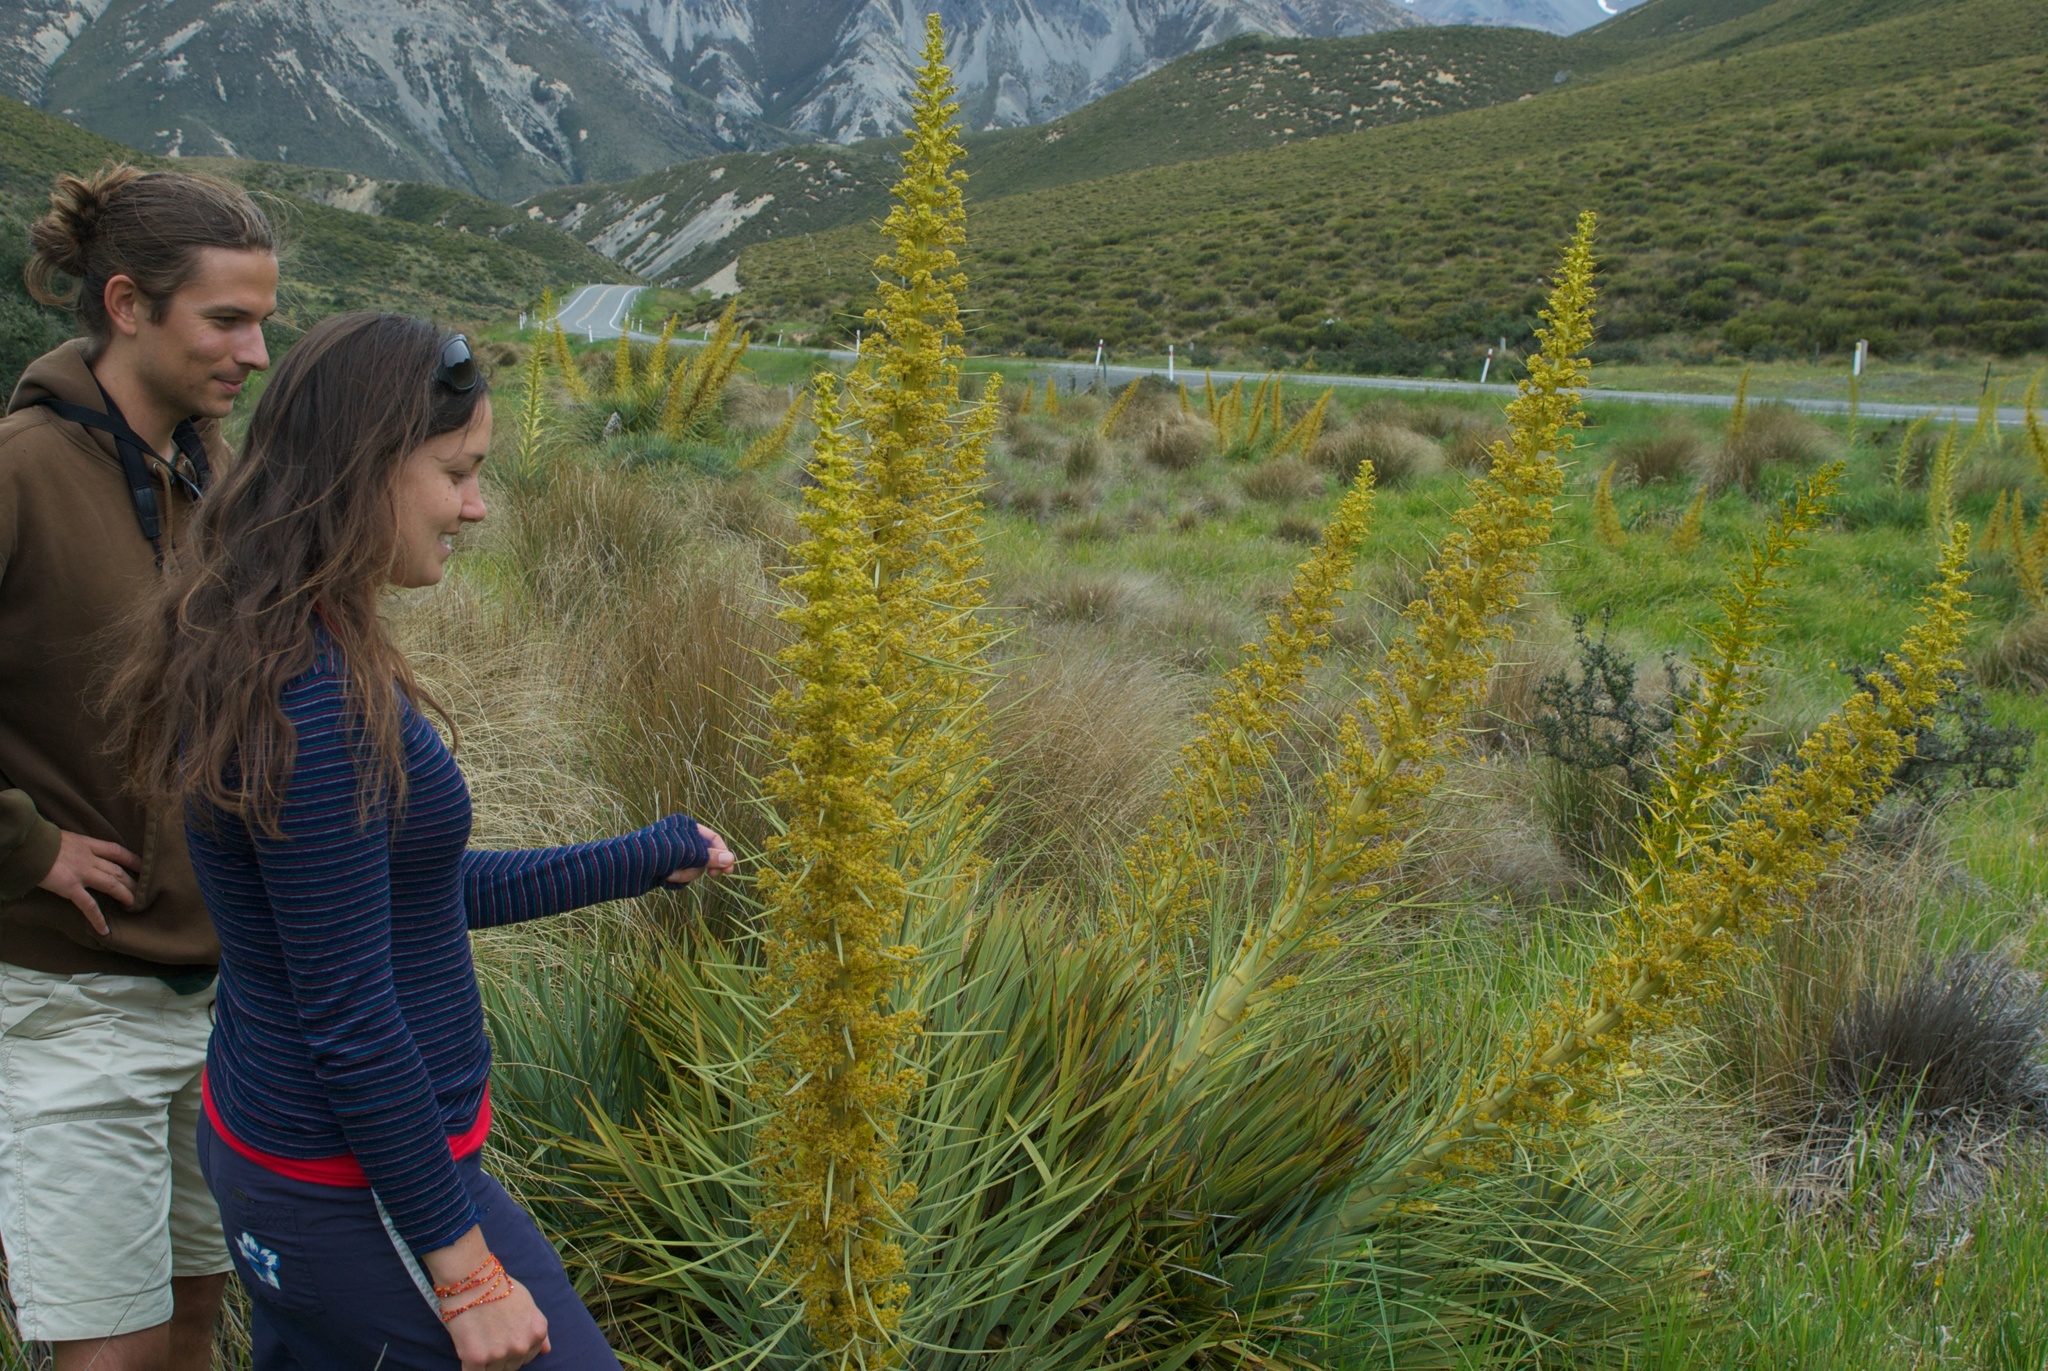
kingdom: Plantae
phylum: Tracheophyta
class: Magnoliopsida
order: Apiales
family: Apiaceae
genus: Aciphylla
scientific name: Aciphylla scott-thomsonii
